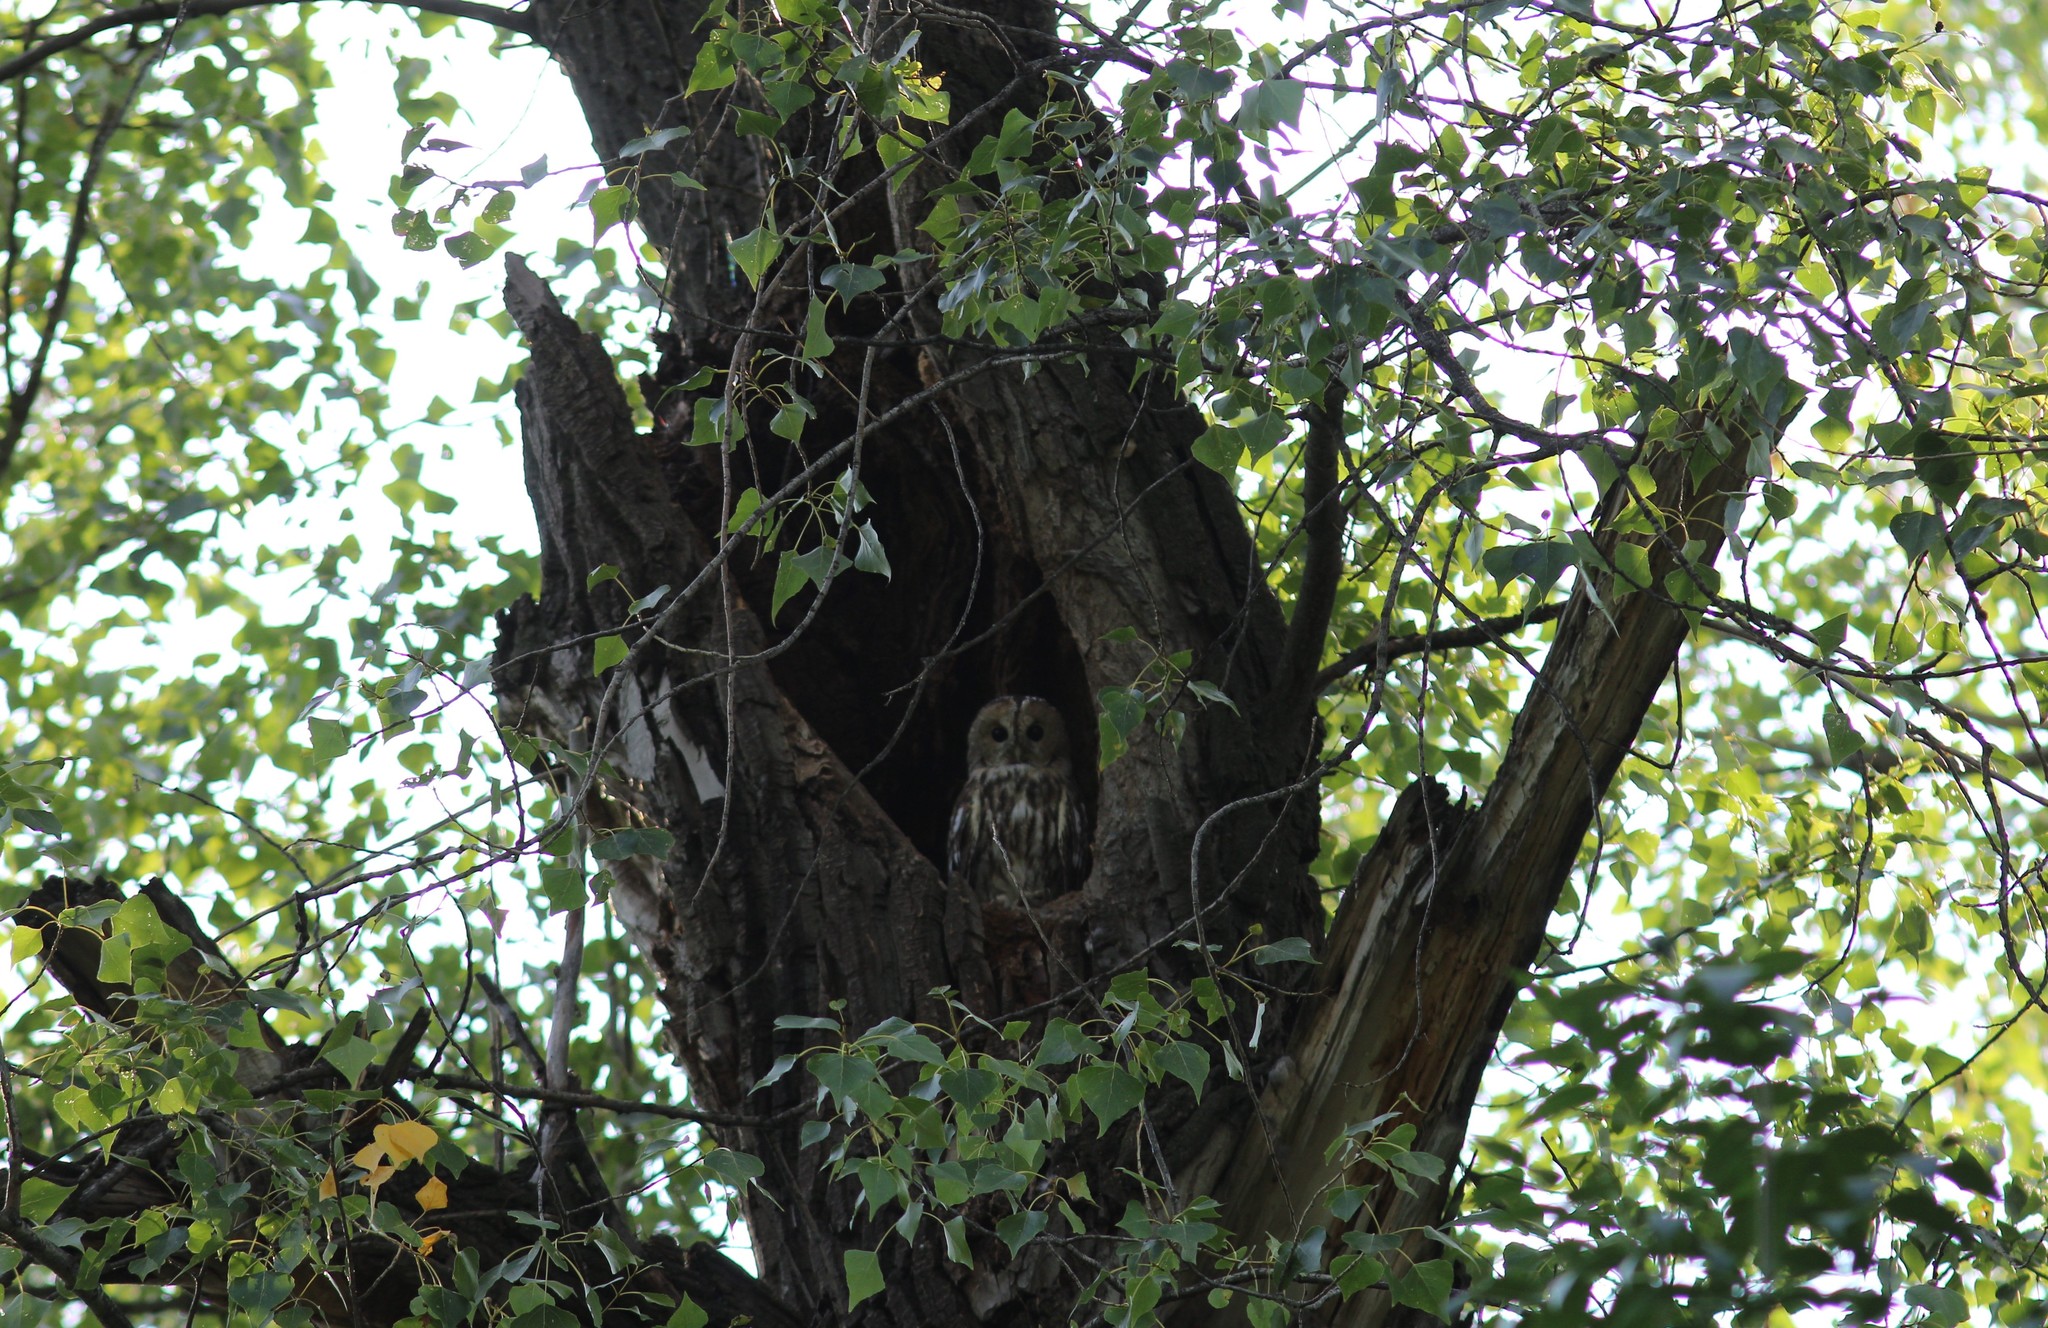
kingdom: Animalia
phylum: Chordata
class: Aves
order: Strigiformes
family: Strigidae
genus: Strix
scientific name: Strix aluco
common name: Tawny owl
